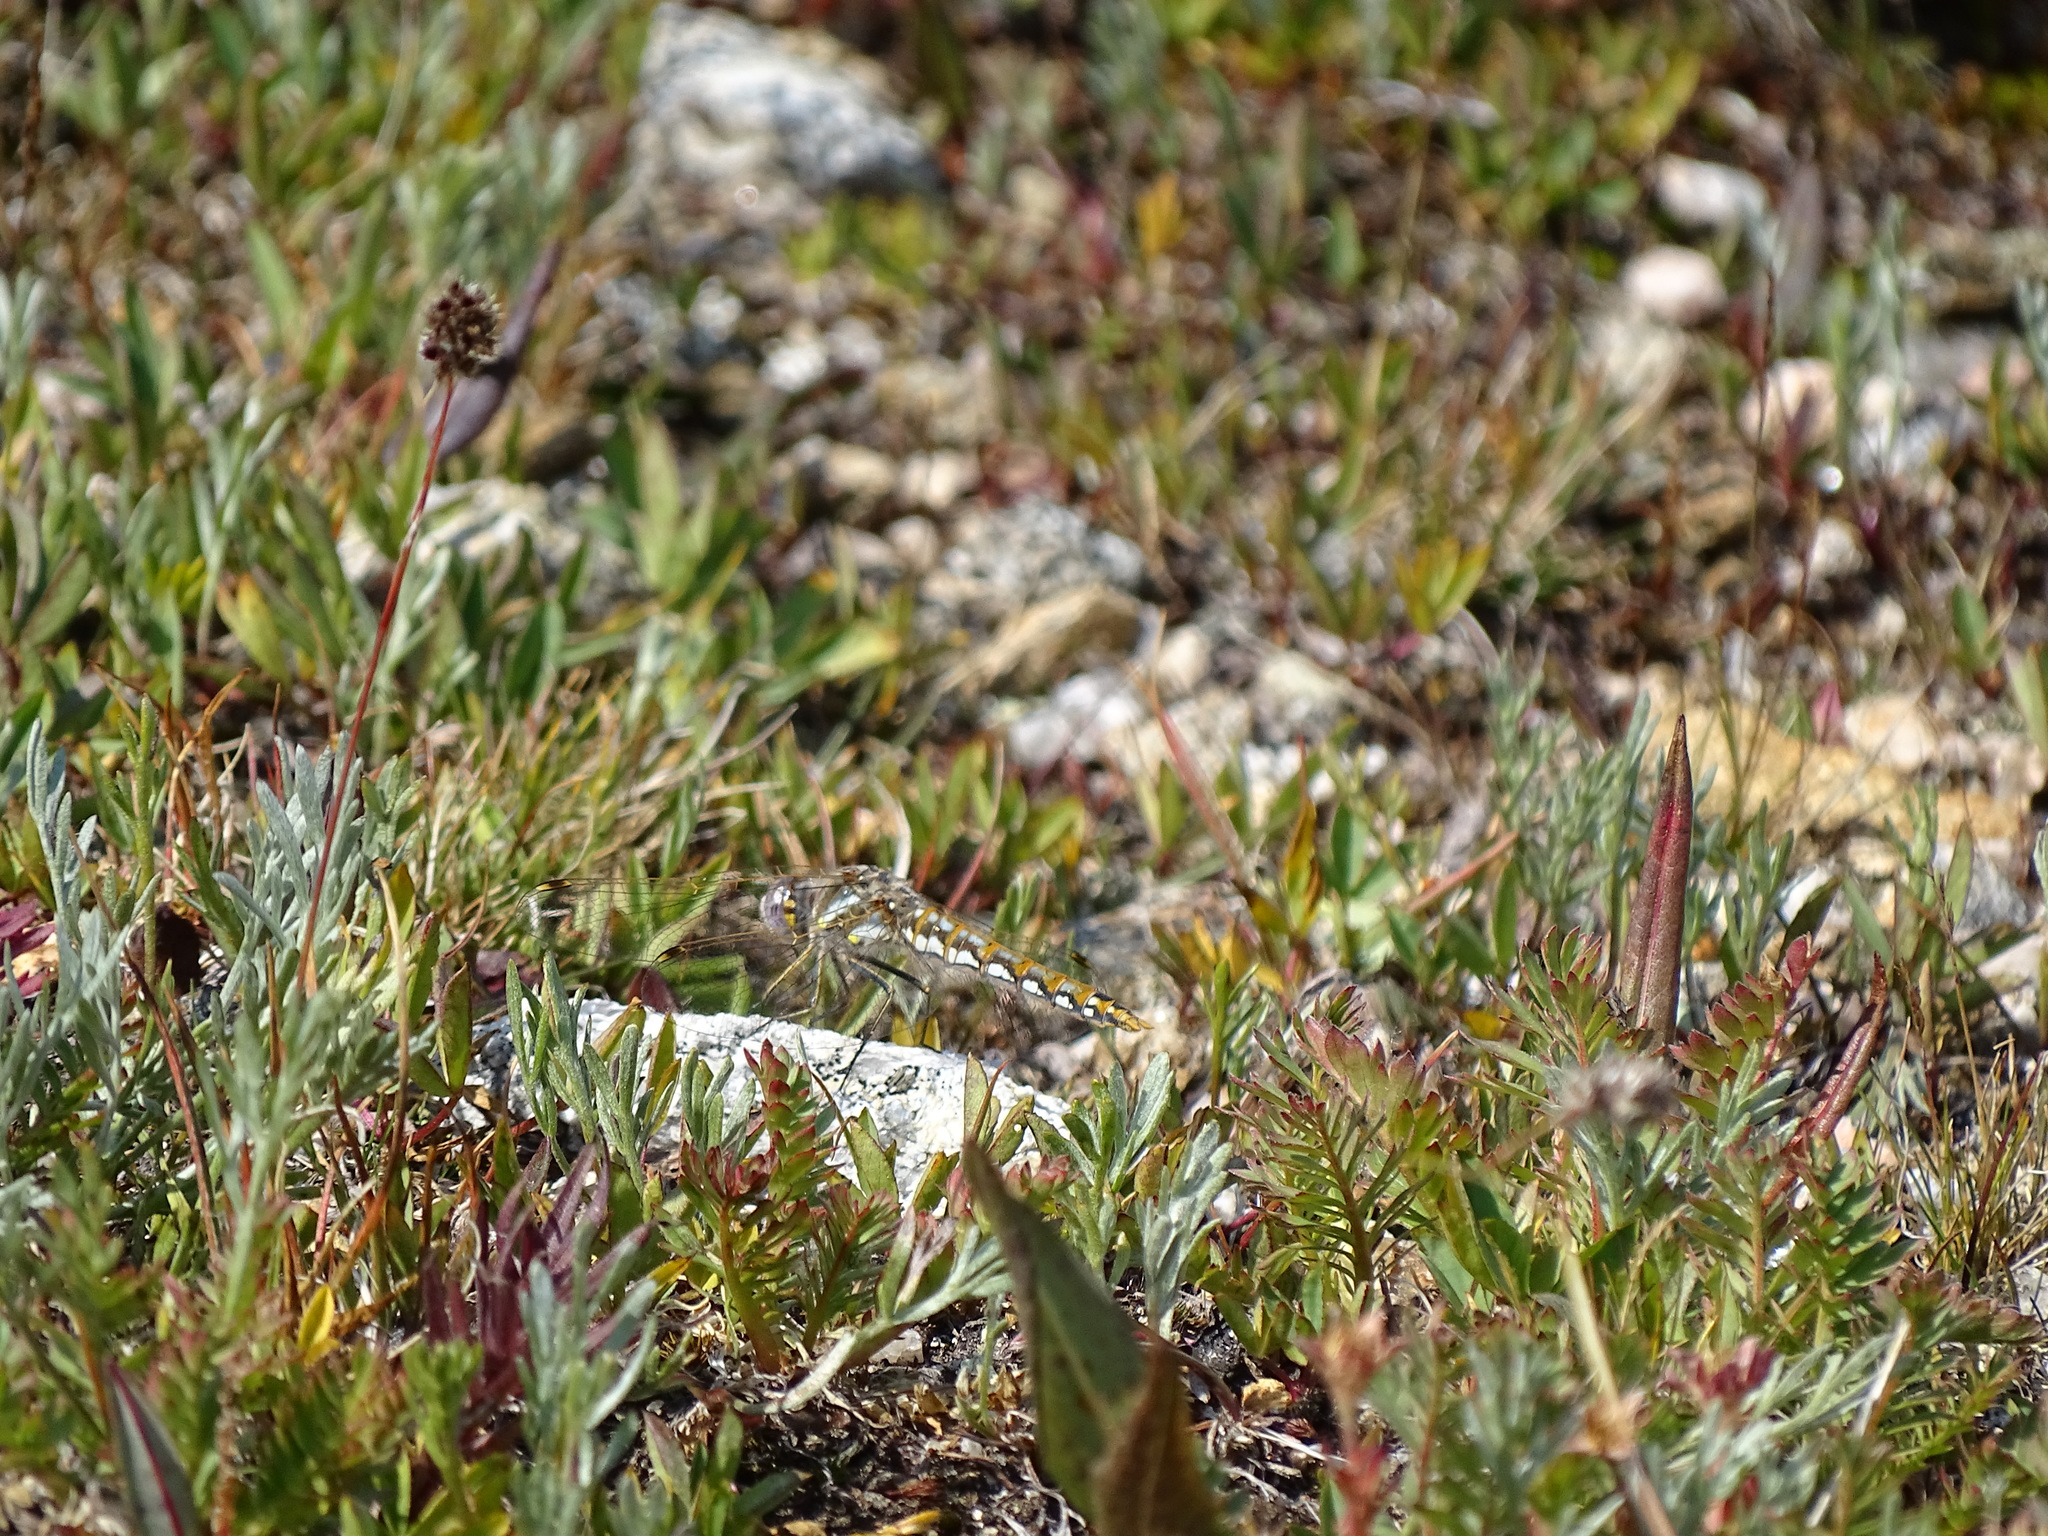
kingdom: Animalia
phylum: Arthropoda
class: Insecta
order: Odonata
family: Libellulidae
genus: Sympetrum
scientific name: Sympetrum corruptum
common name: Variegated meadowhawk
